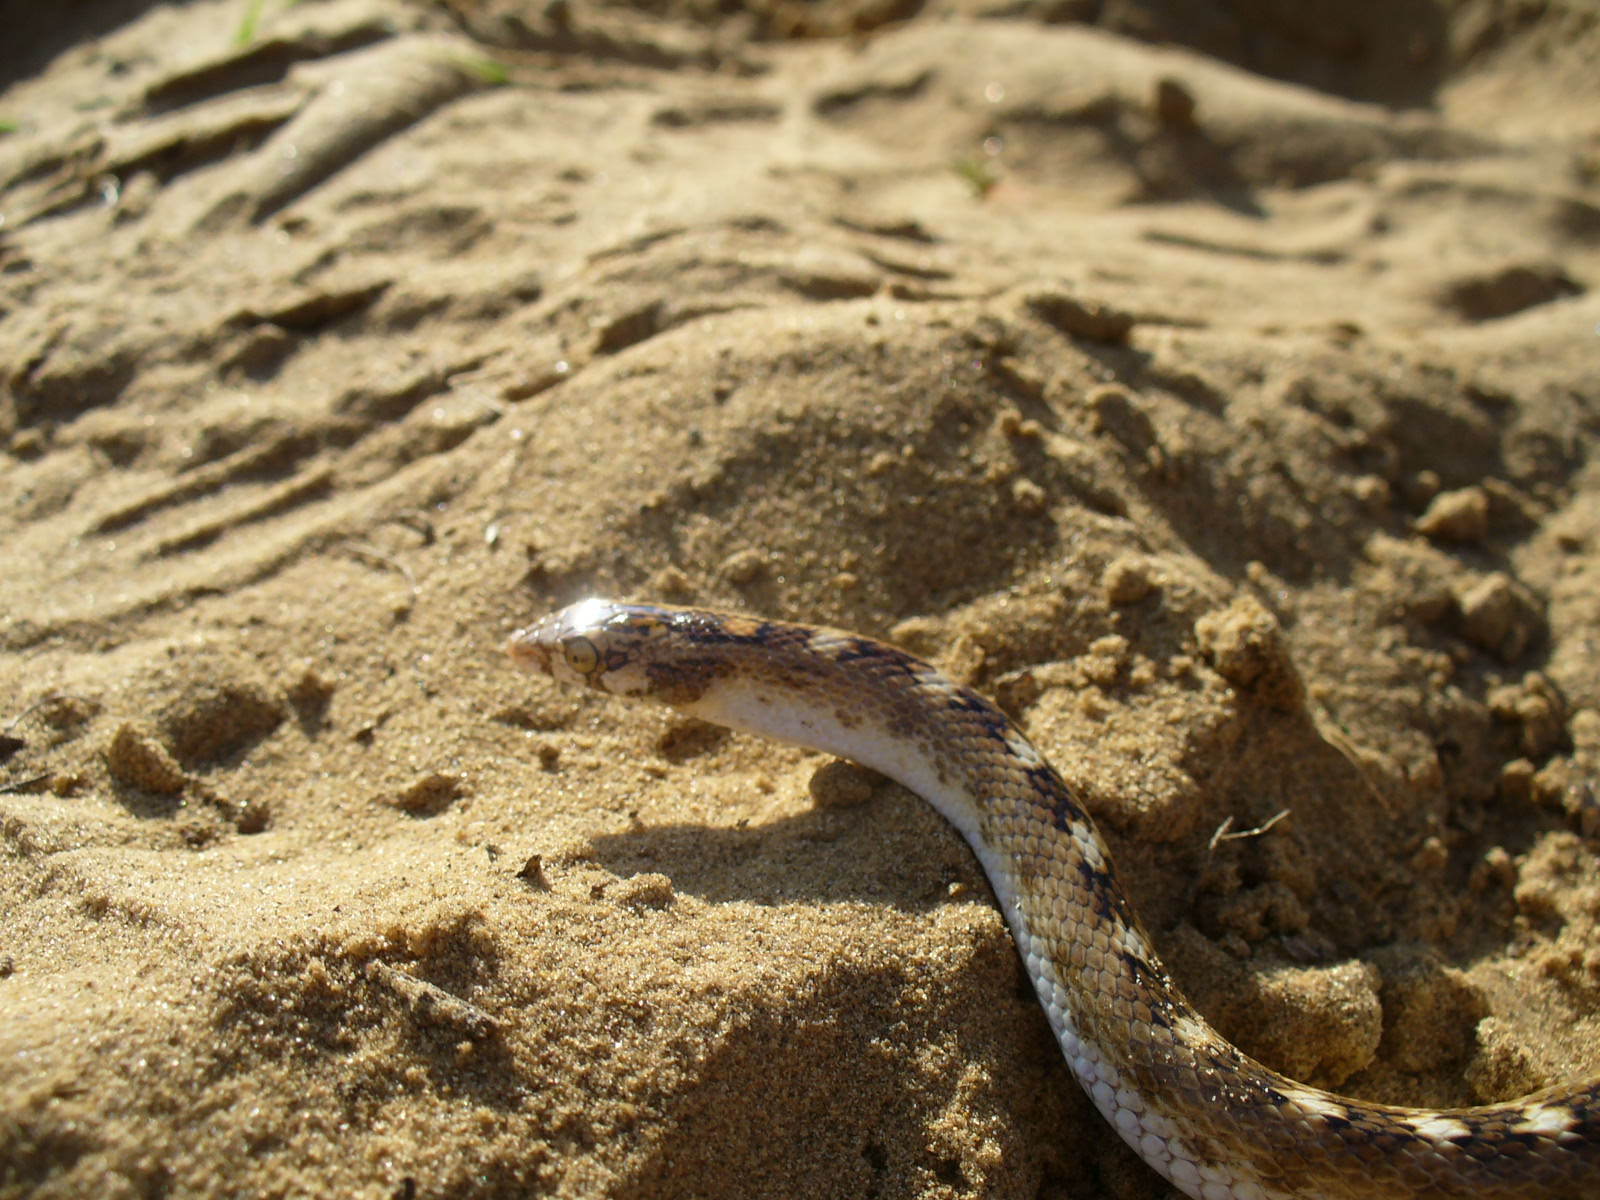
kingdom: Animalia
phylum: Chordata
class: Squamata
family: Colubridae
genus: Lytorhynchus
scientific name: Lytorhynchus paradoxus
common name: Sind longnose sand snake
